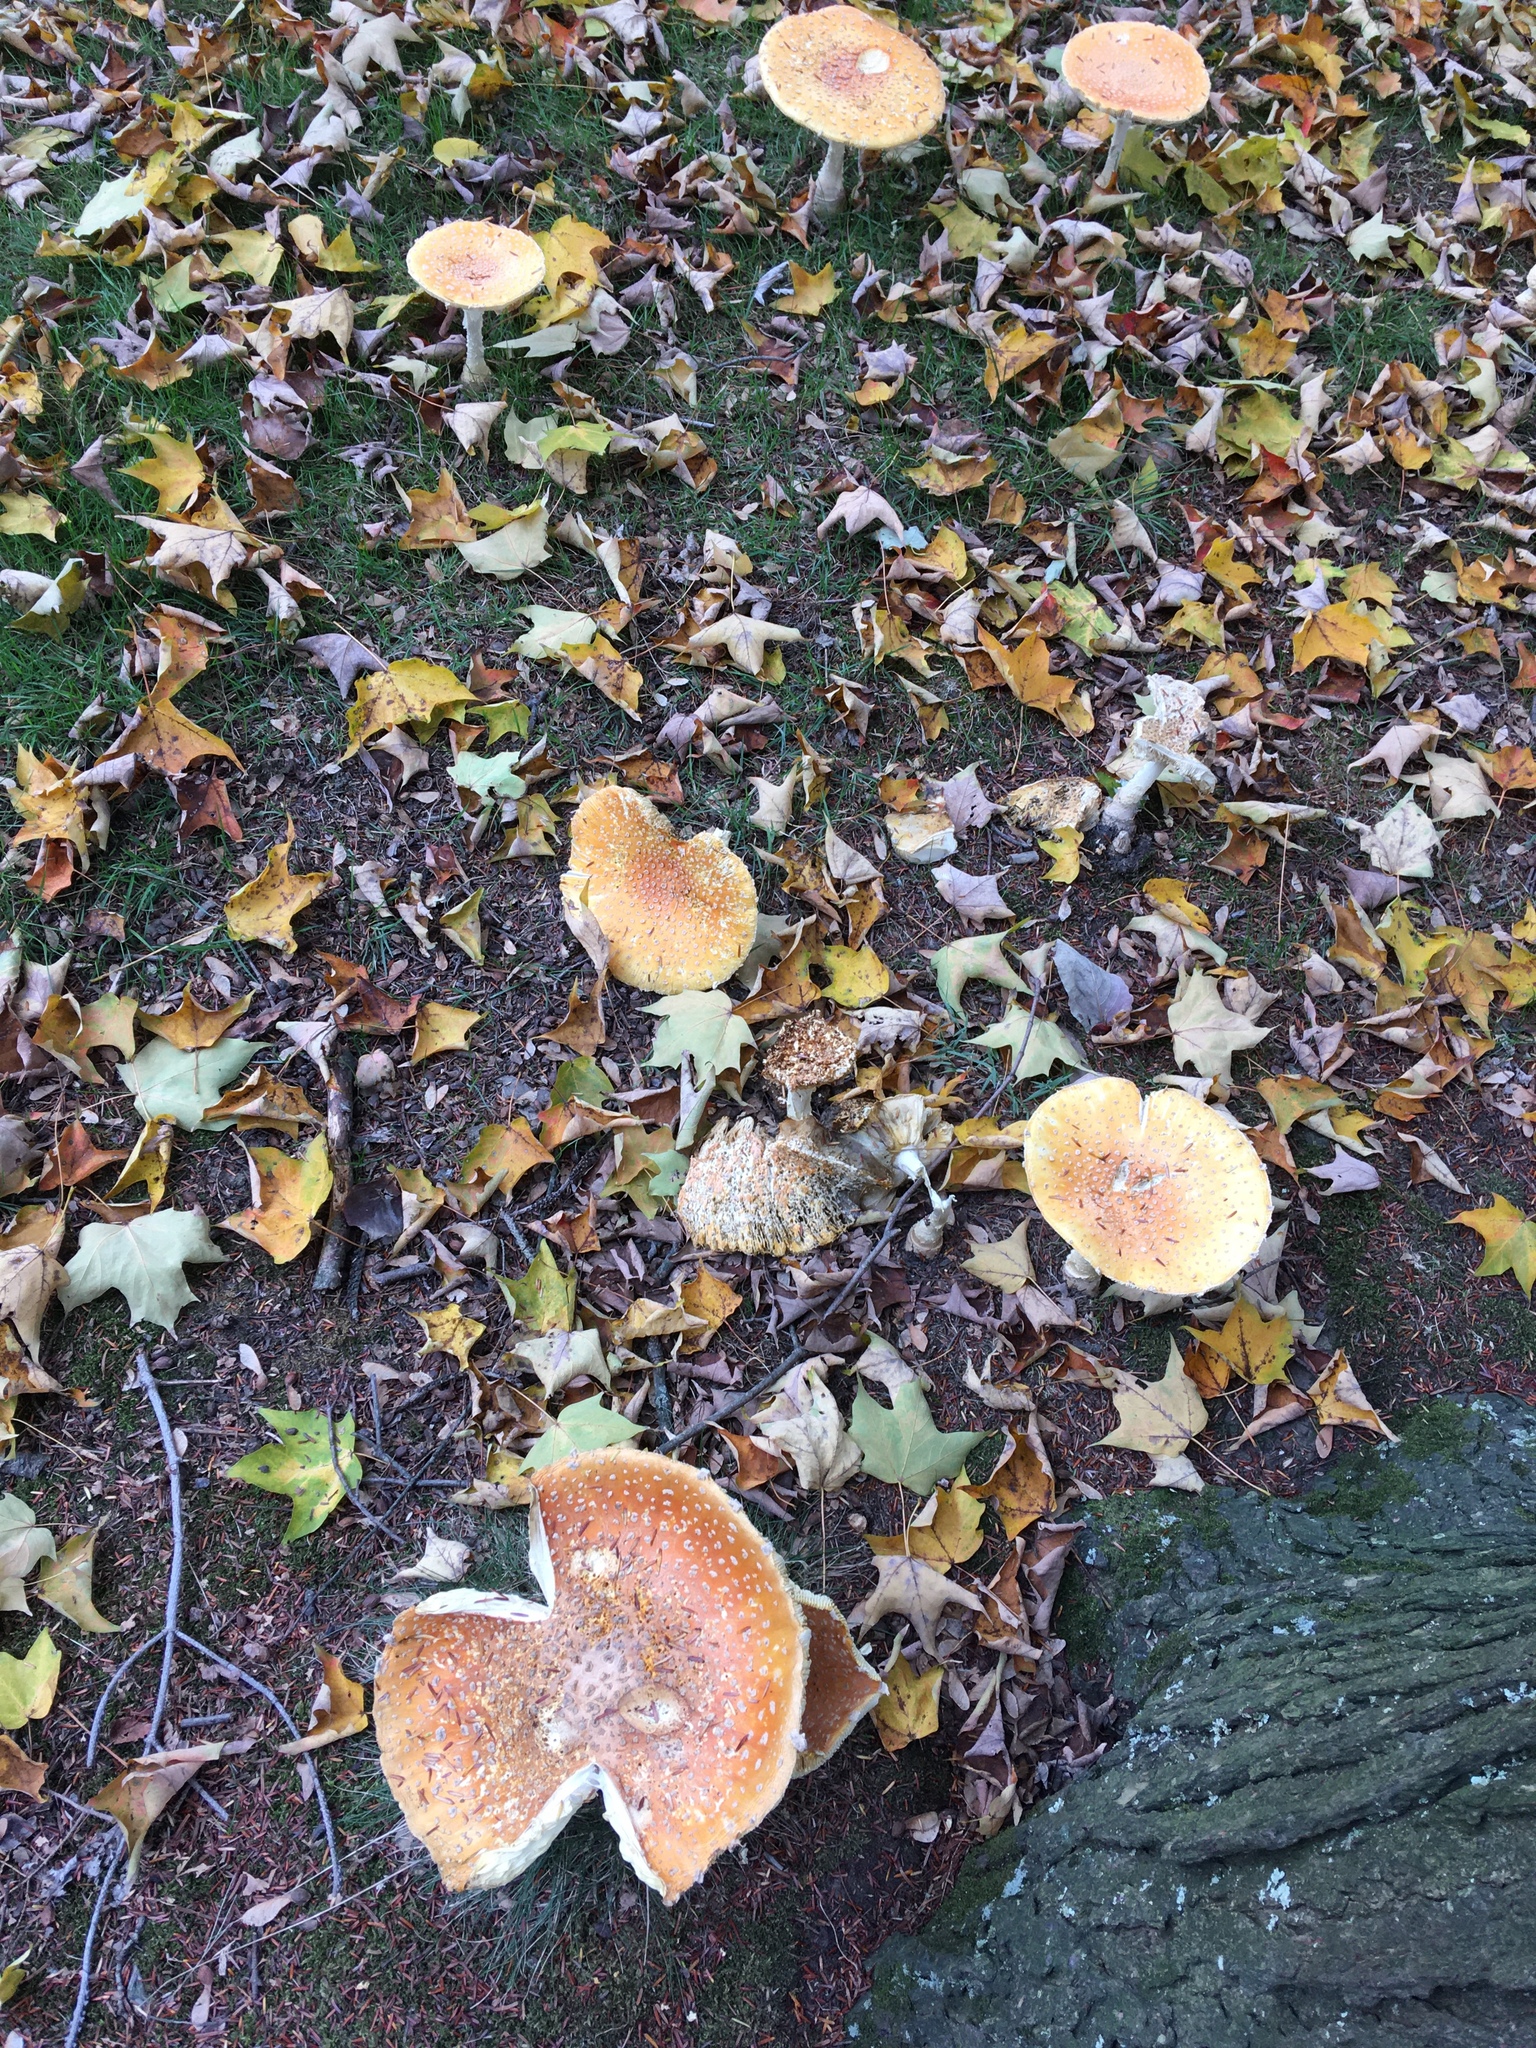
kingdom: Fungi
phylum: Basidiomycota
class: Agaricomycetes
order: Agaricales
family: Amanitaceae
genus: Amanita
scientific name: Amanita muscaria
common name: Fly agaric
